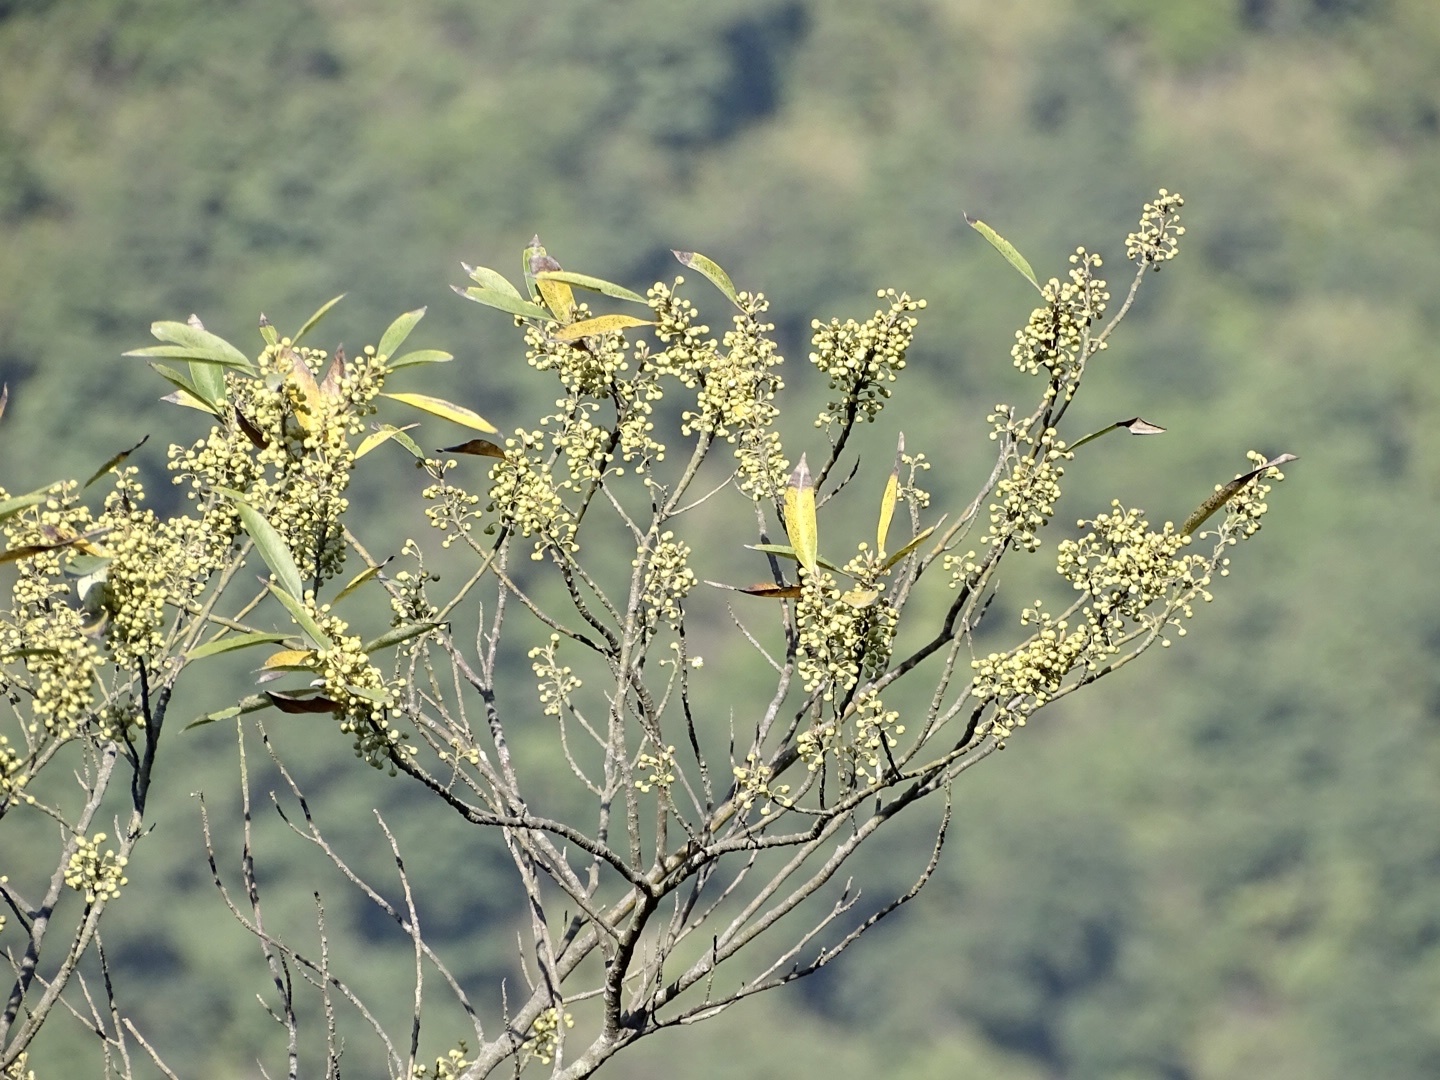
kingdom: Plantae
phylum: Tracheophyta
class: Magnoliopsida
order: Laurales
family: Lauraceae
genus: Litsea
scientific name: Litsea cubeba
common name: Mountain-pepper
